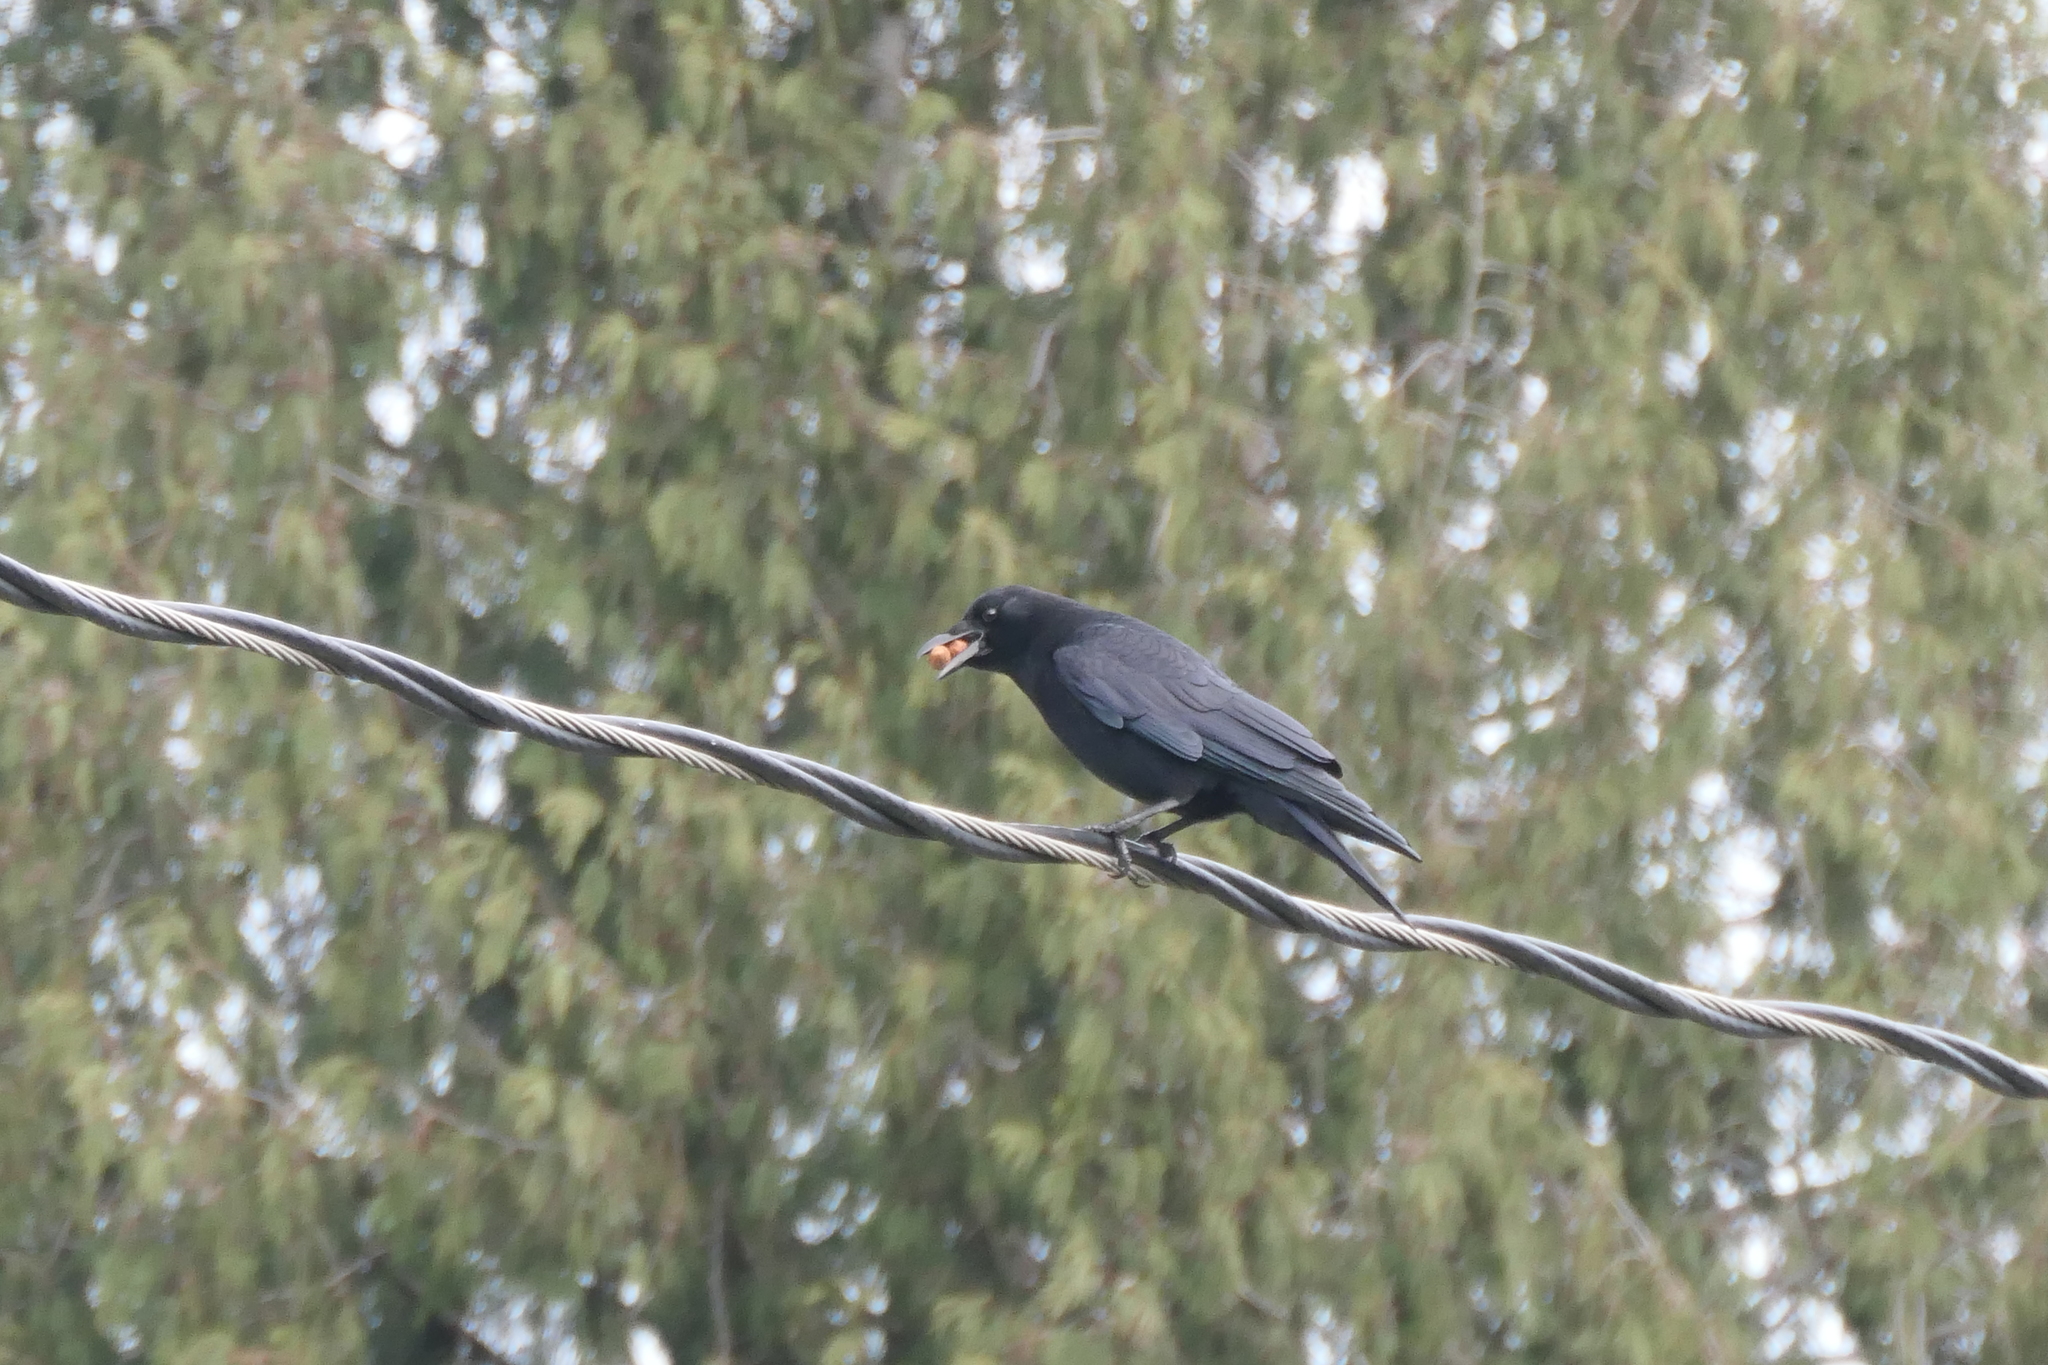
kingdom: Animalia
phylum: Chordata
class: Aves
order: Passeriformes
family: Corvidae
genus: Corvus
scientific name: Corvus brachyrhynchos
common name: American crow
